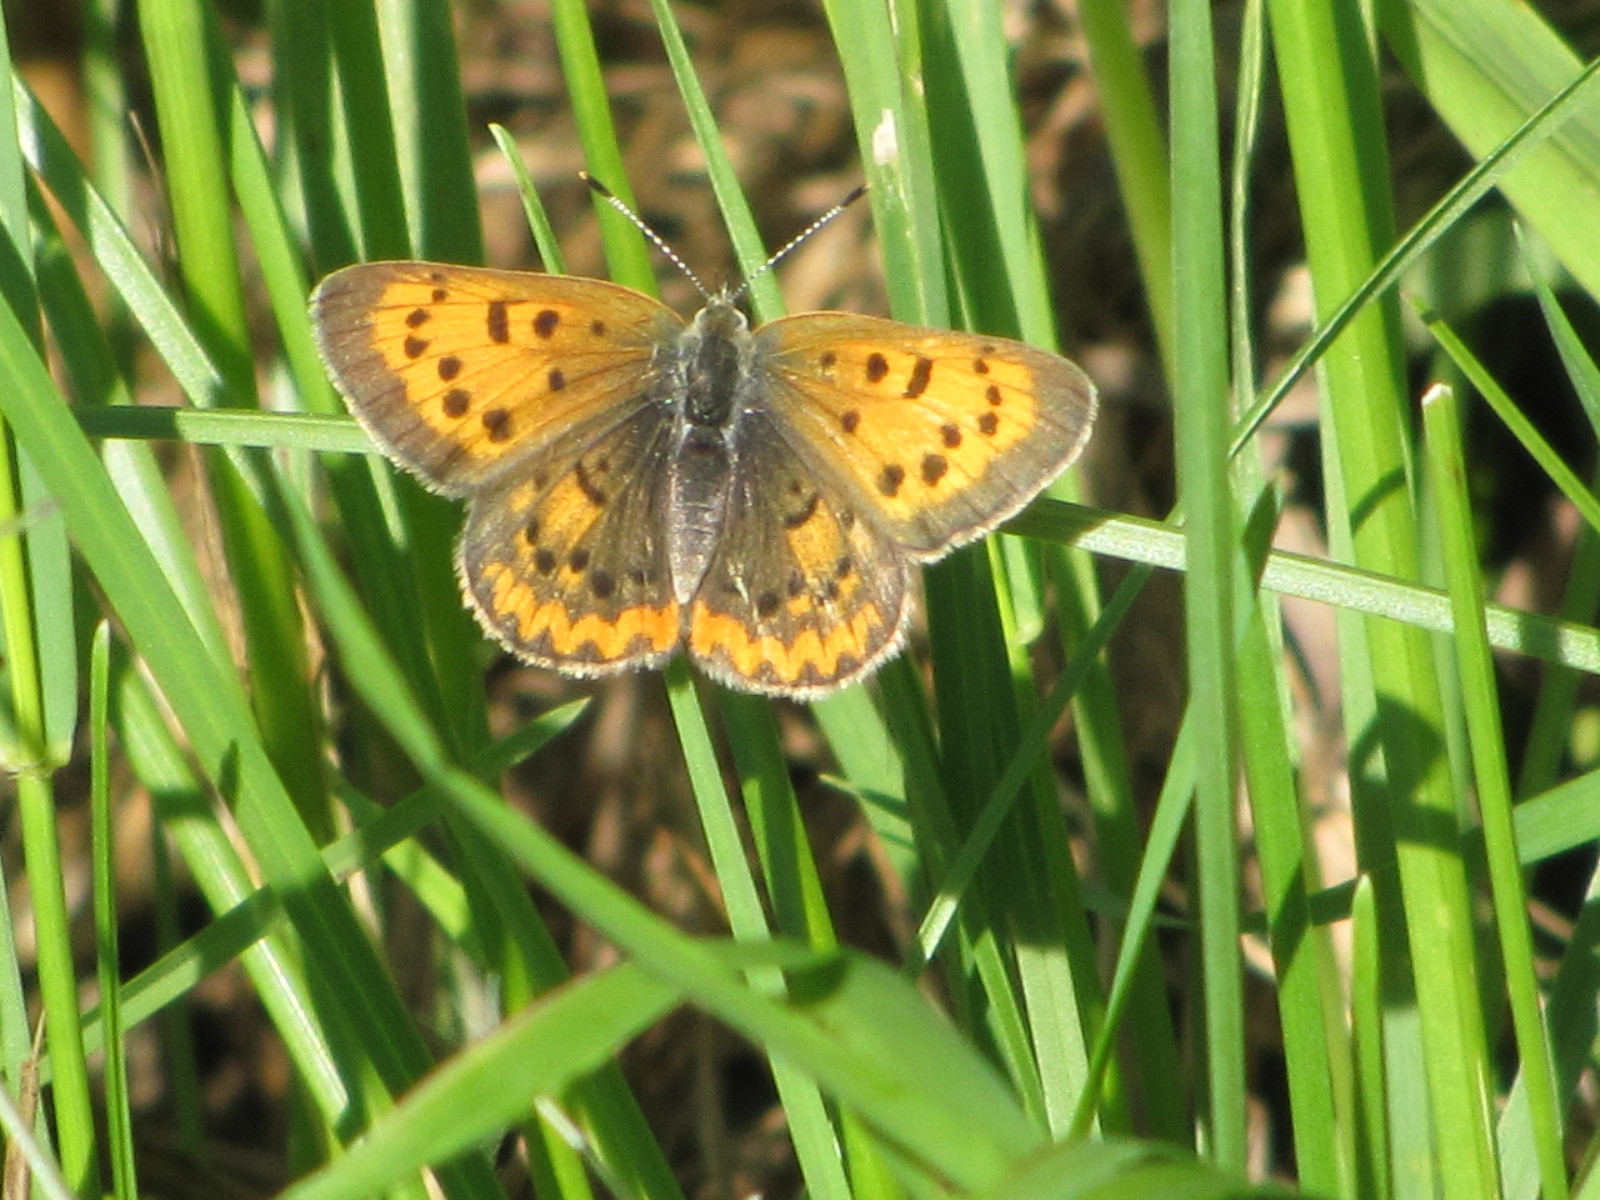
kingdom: Animalia
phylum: Arthropoda
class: Insecta
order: Lepidoptera
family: Lycaenidae
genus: Tharsalea
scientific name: Tharsalea helloides
